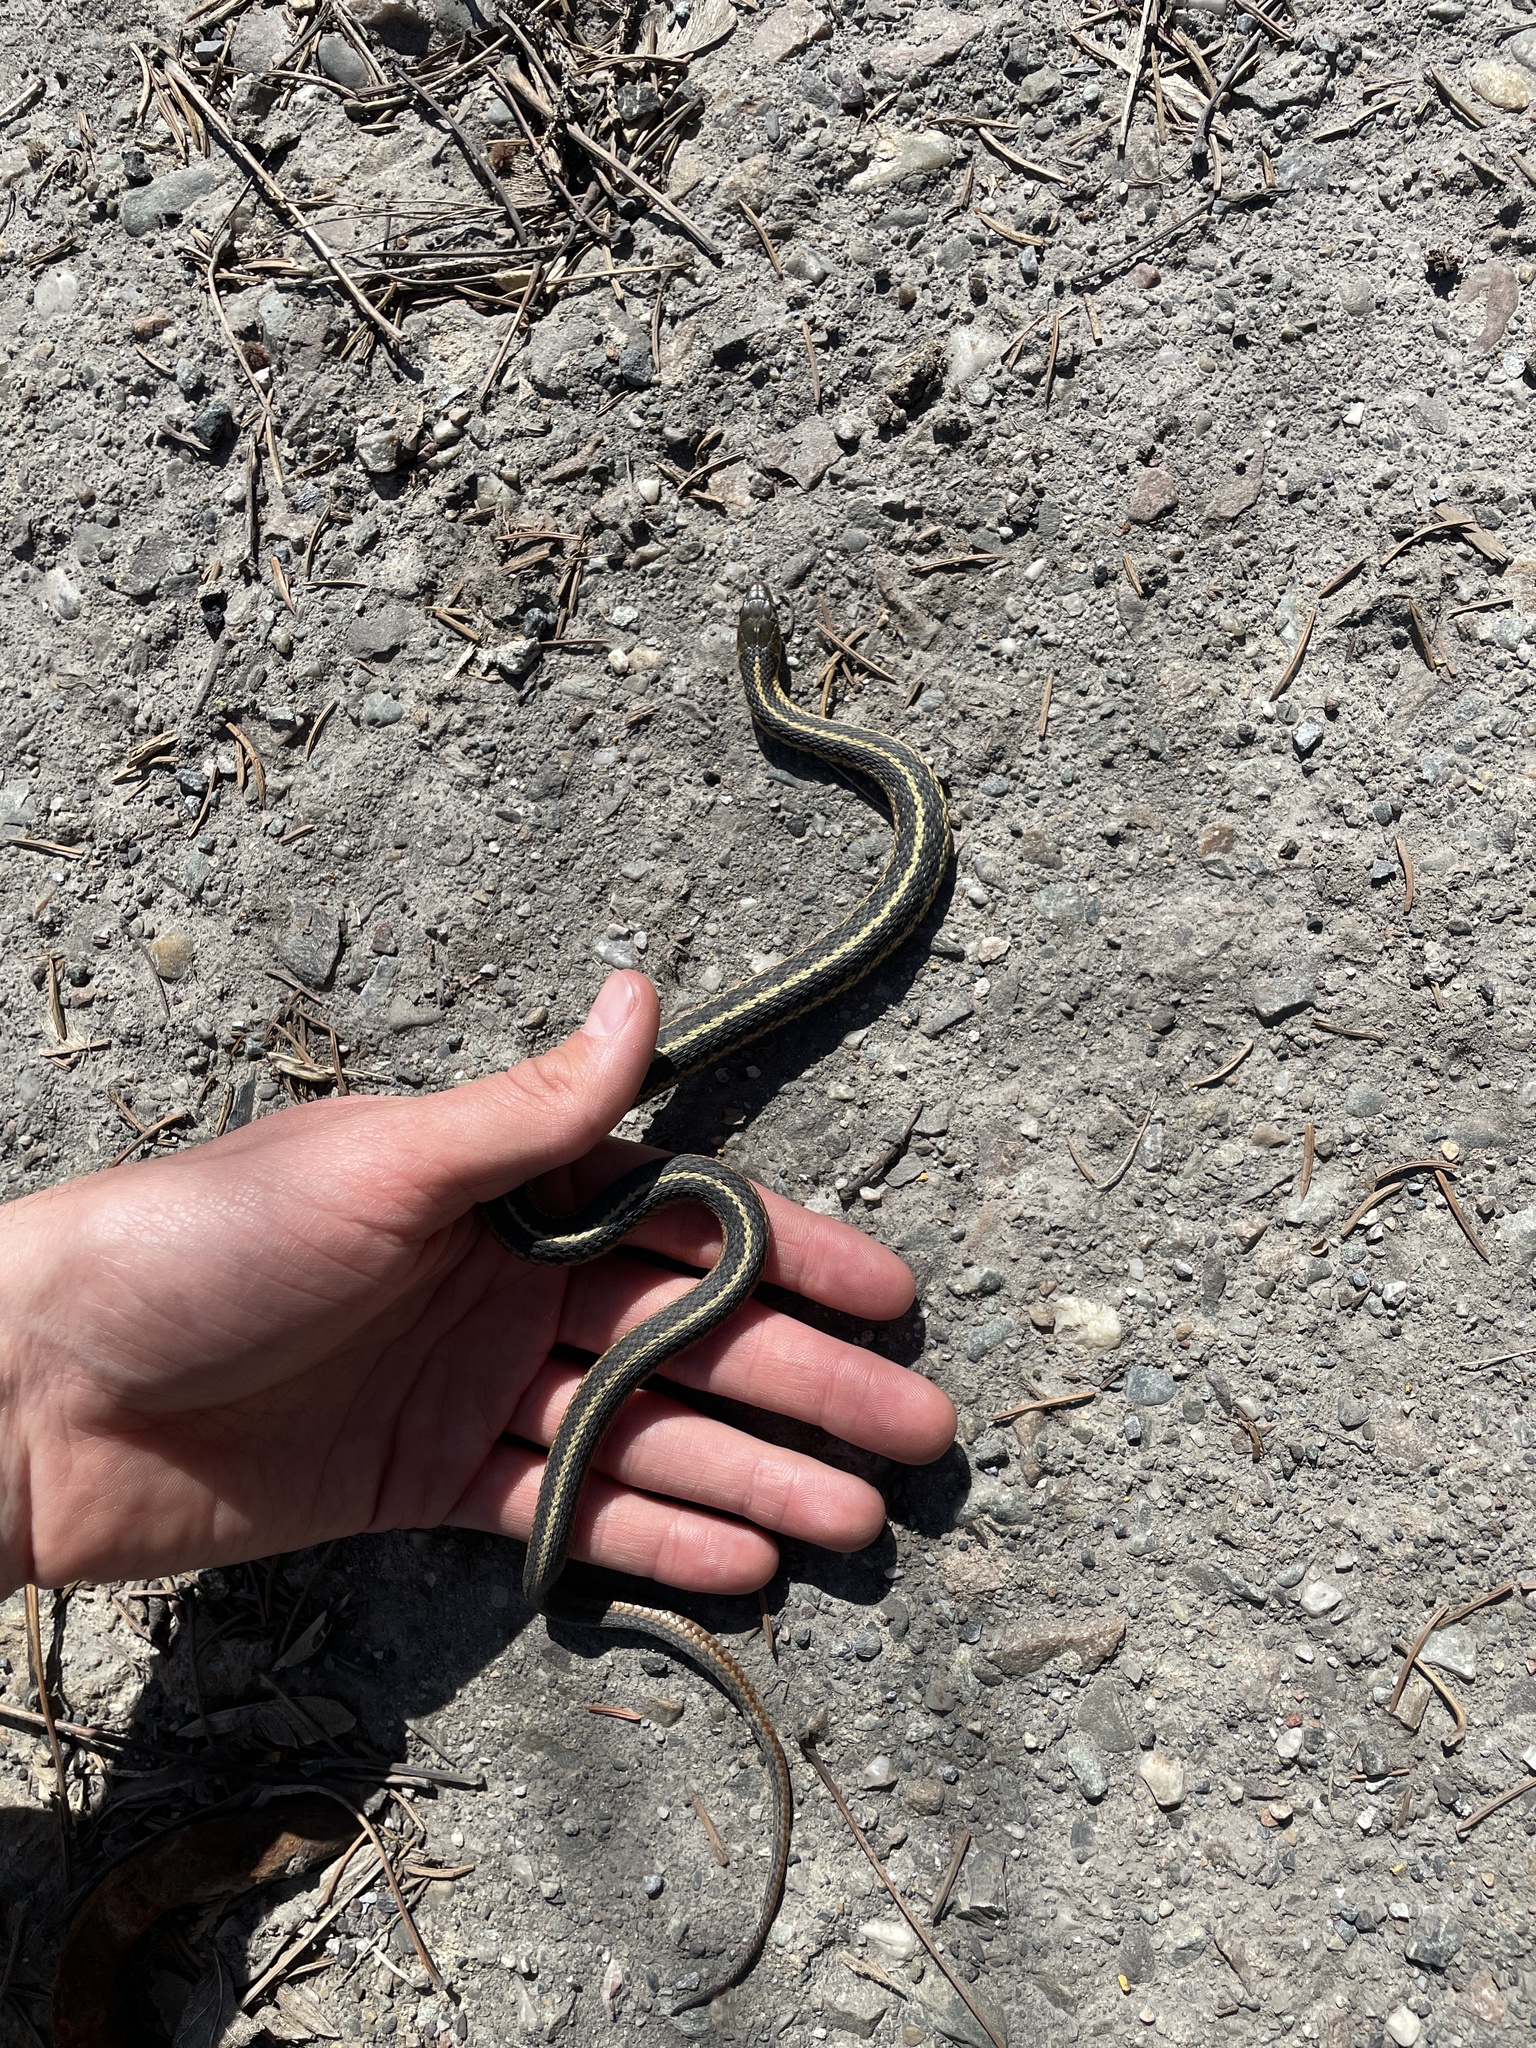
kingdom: Animalia
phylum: Chordata
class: Squamata
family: Colubridae
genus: Thamnophis
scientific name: Thamnophis sirtalis
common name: Common garter snake
